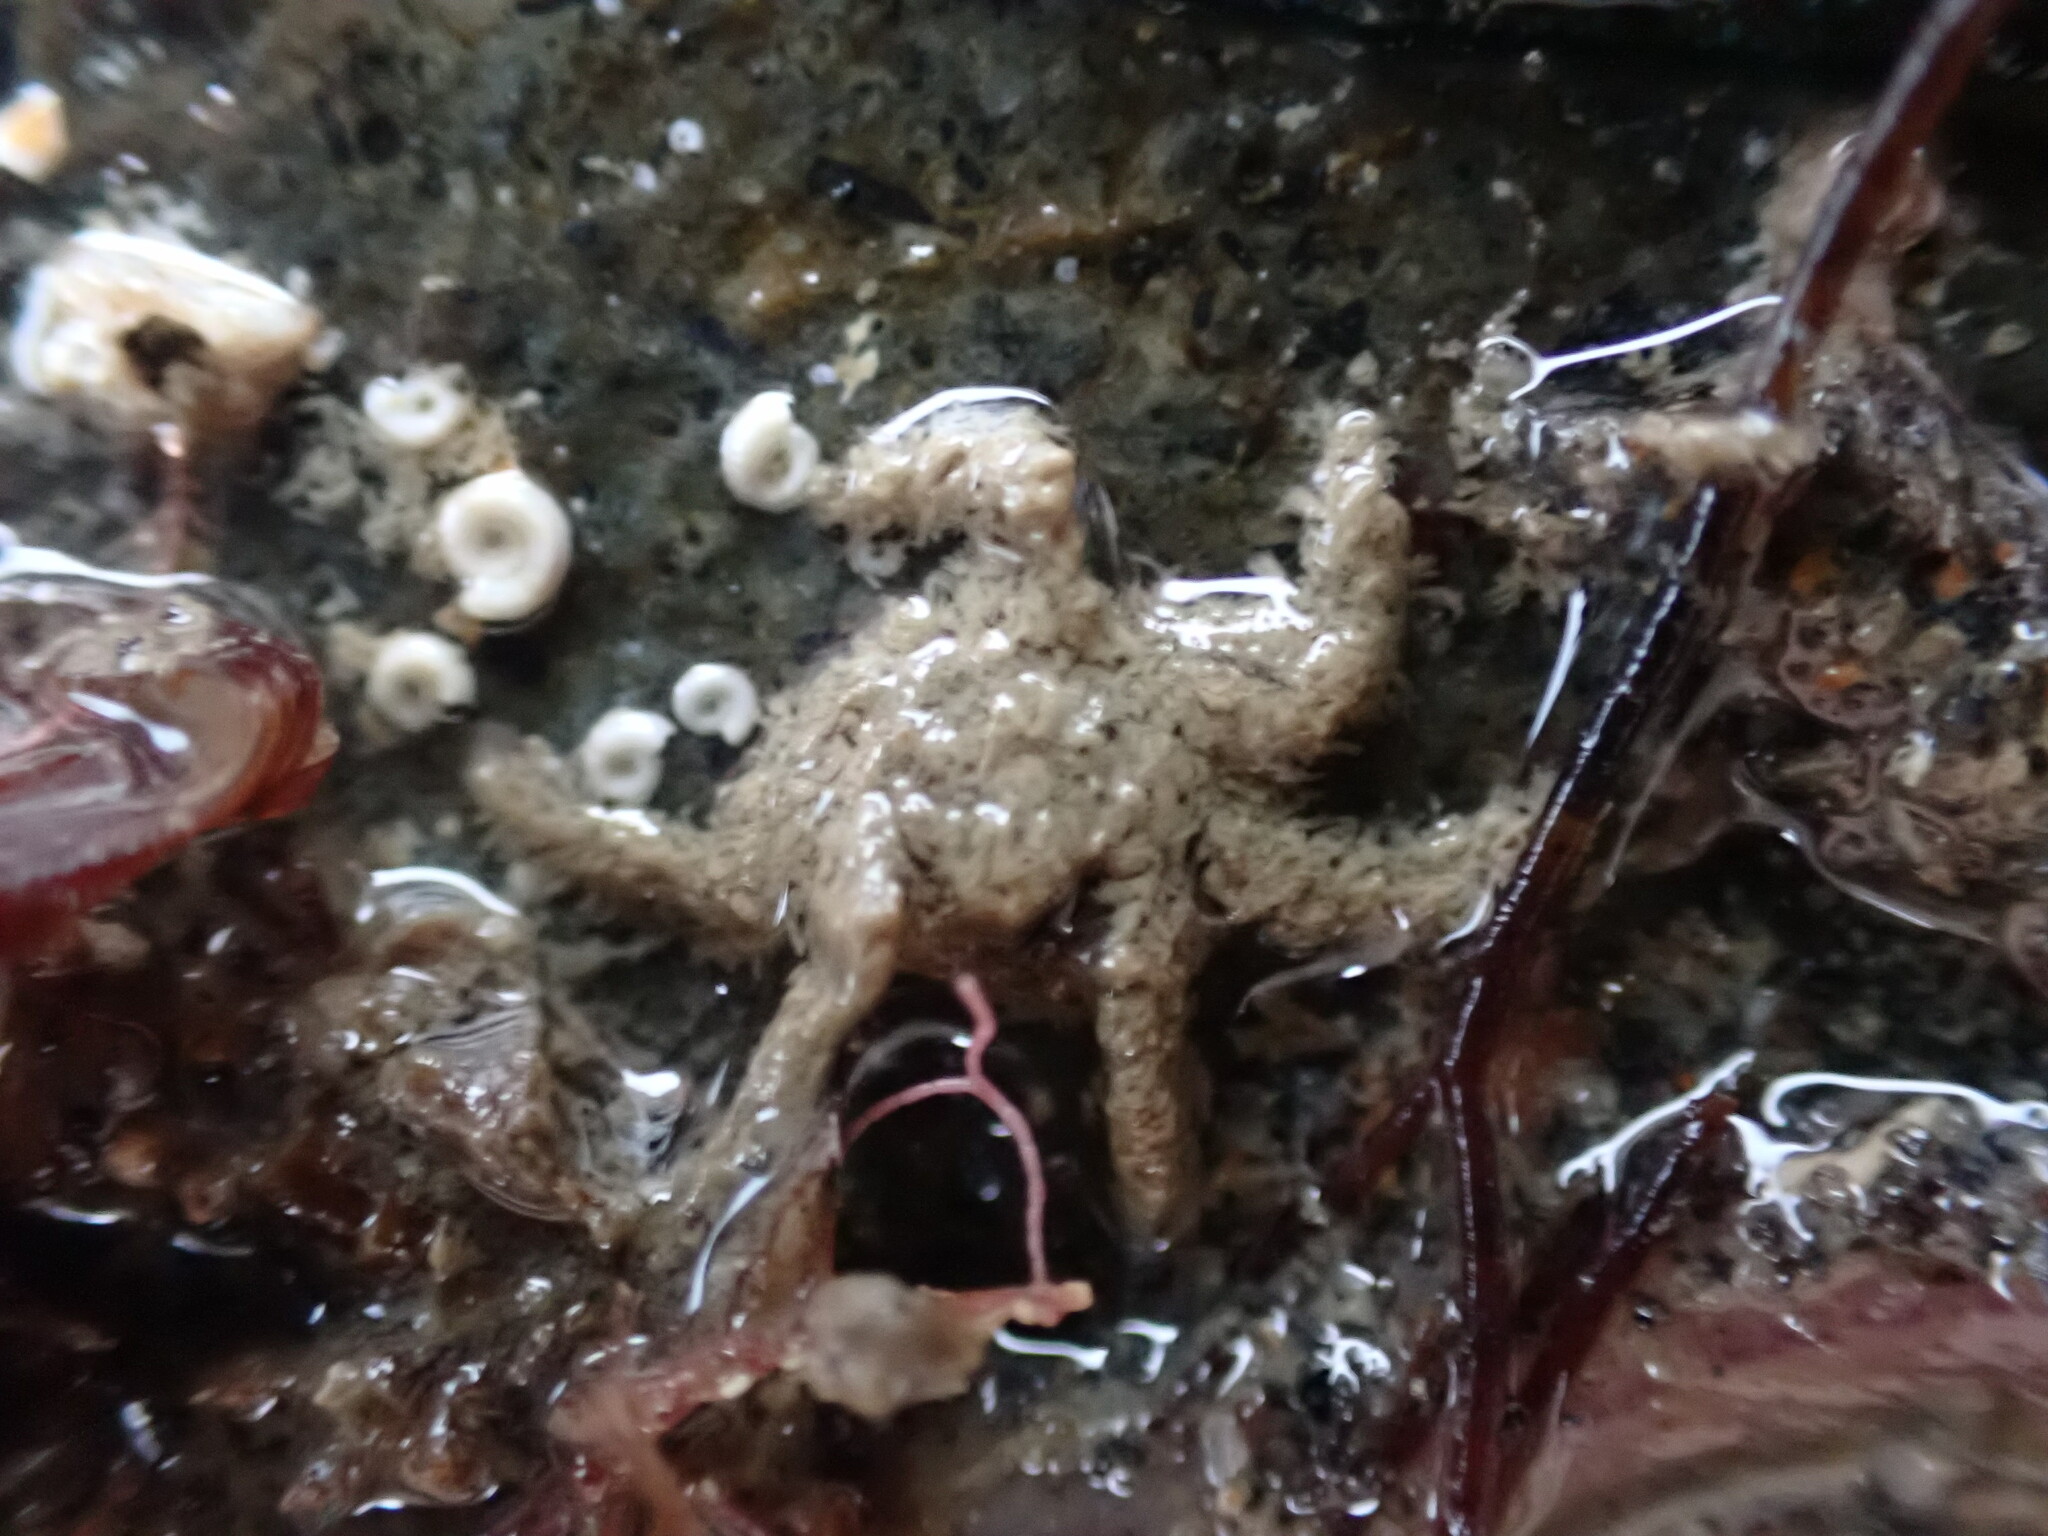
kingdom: Animalia
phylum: Arthropoda
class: Malacostraca
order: Decapoda
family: Hymenosomatidae
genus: Neohymenicus
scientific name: Neohymenicus pubescens
